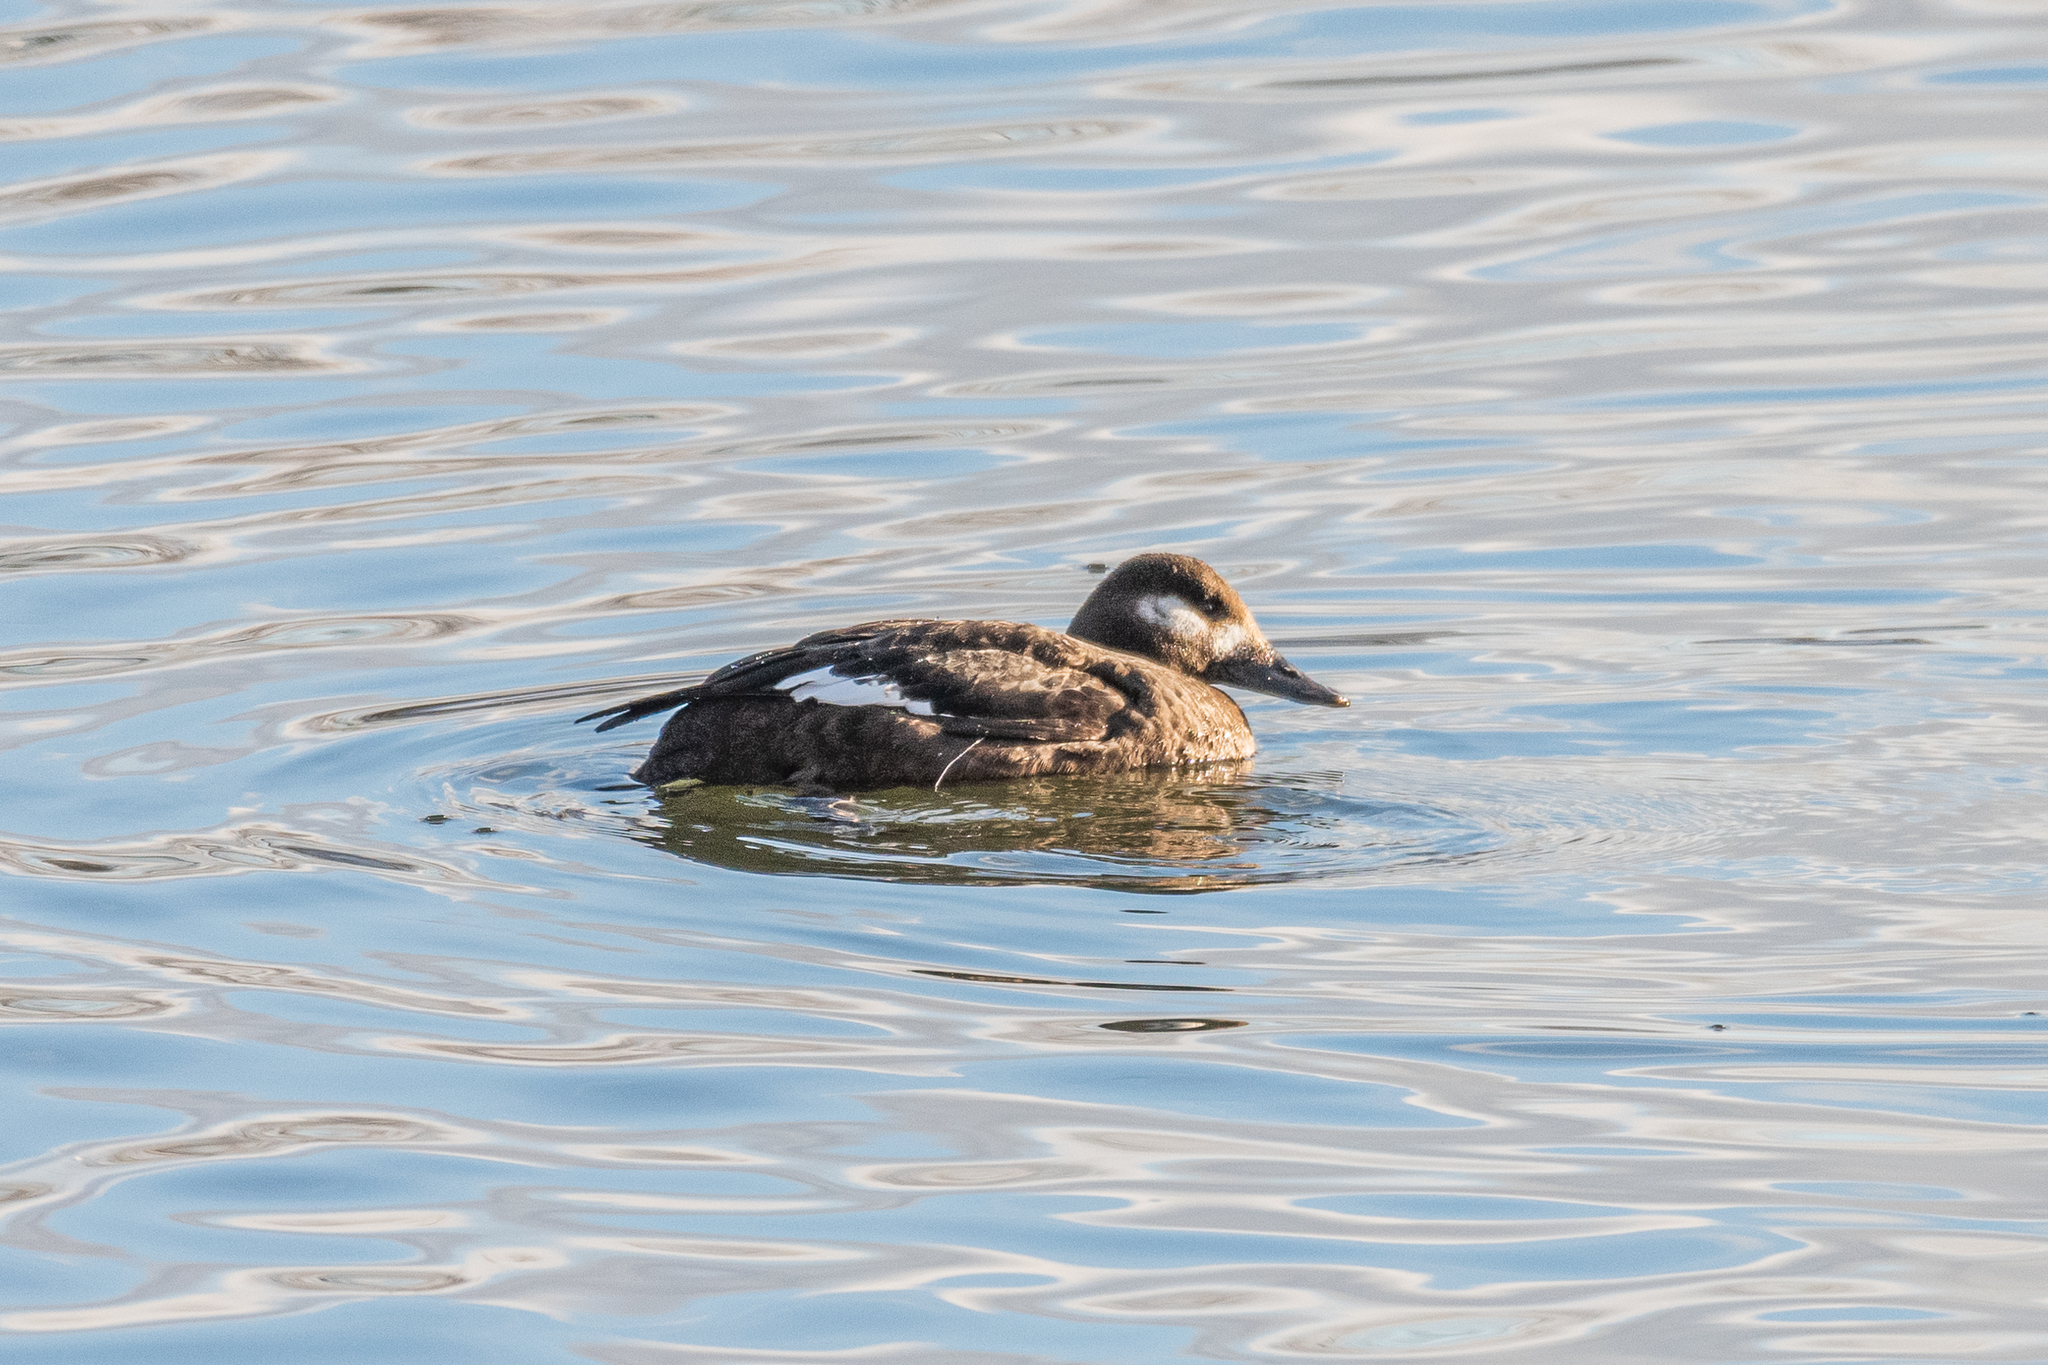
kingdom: Animalia
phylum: Chordata
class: Aves
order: Anseriformes
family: Anatidae
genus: Melanitta
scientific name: Melanitta fusca
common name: Velvet scoter
